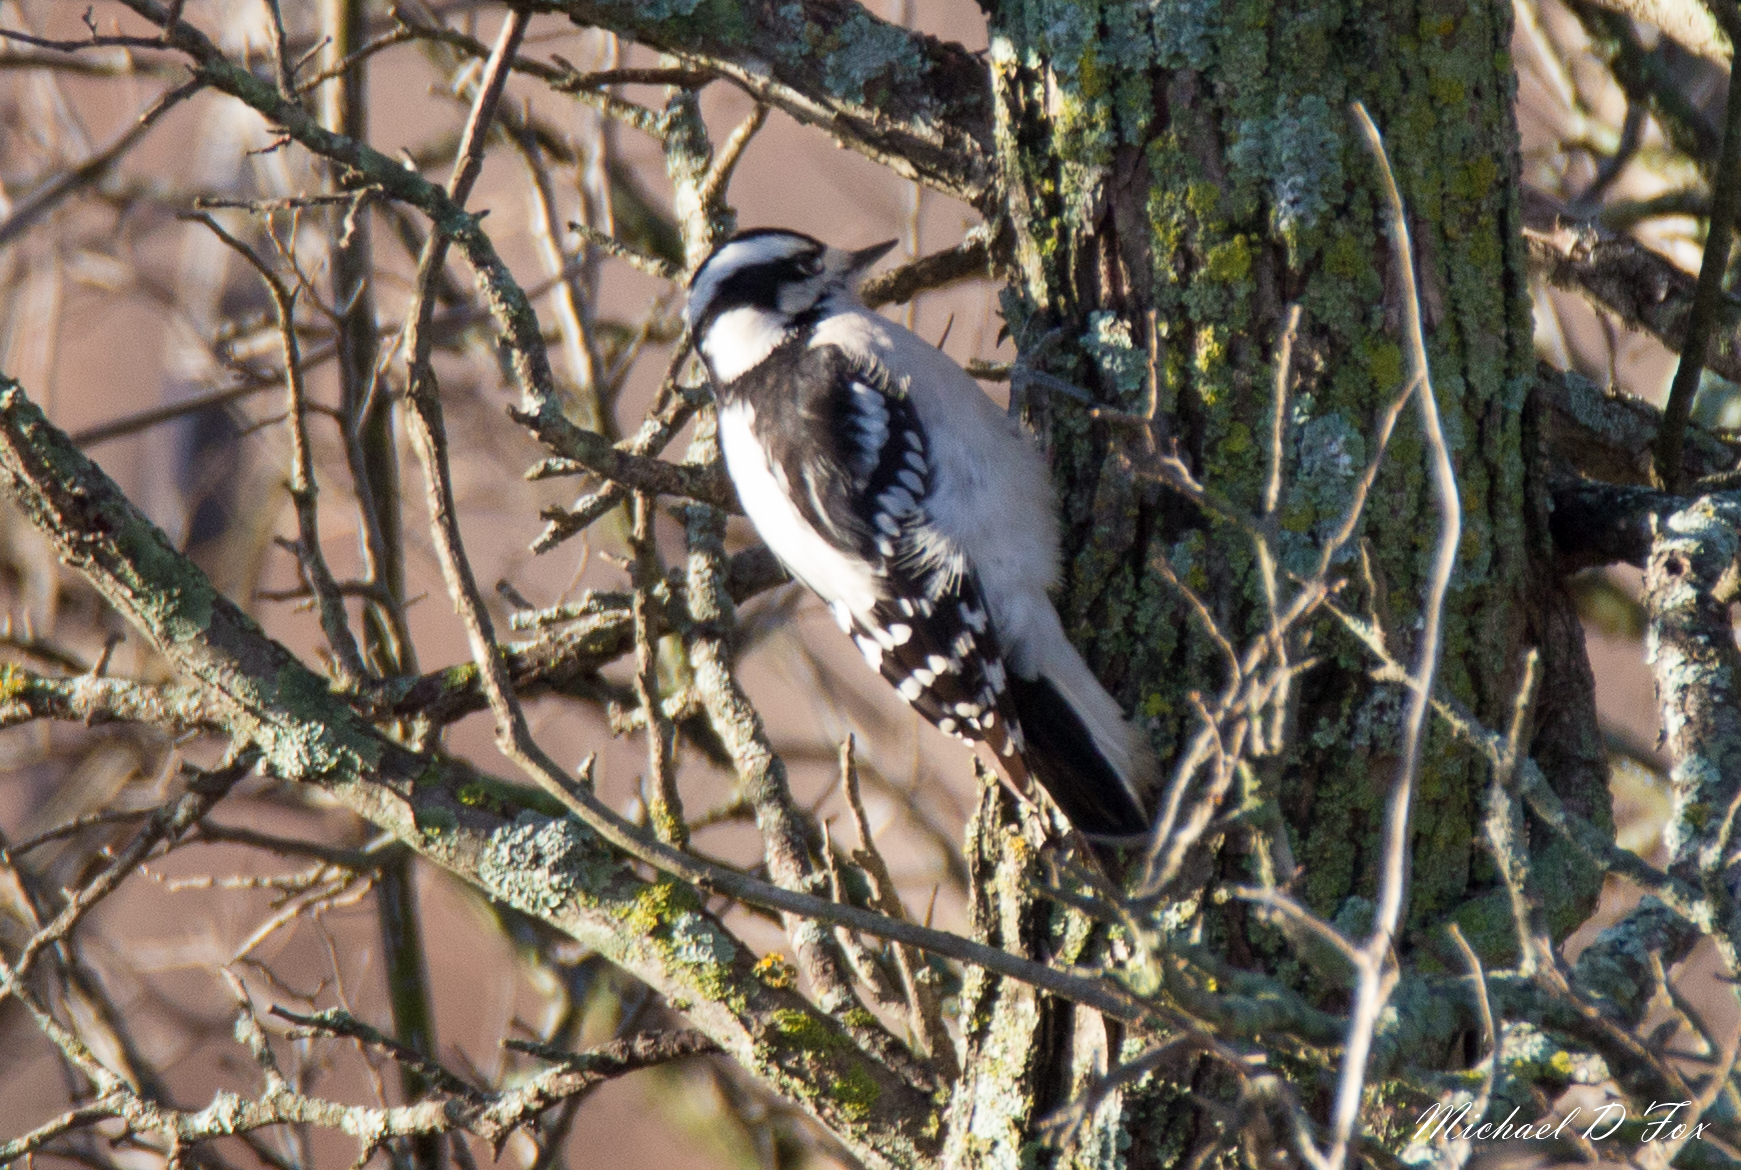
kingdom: Animalia
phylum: Chordata
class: Aves
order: Piciformes
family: Picidae
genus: Dryobates
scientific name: Dryobates pubescens
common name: Downy woodpecker
